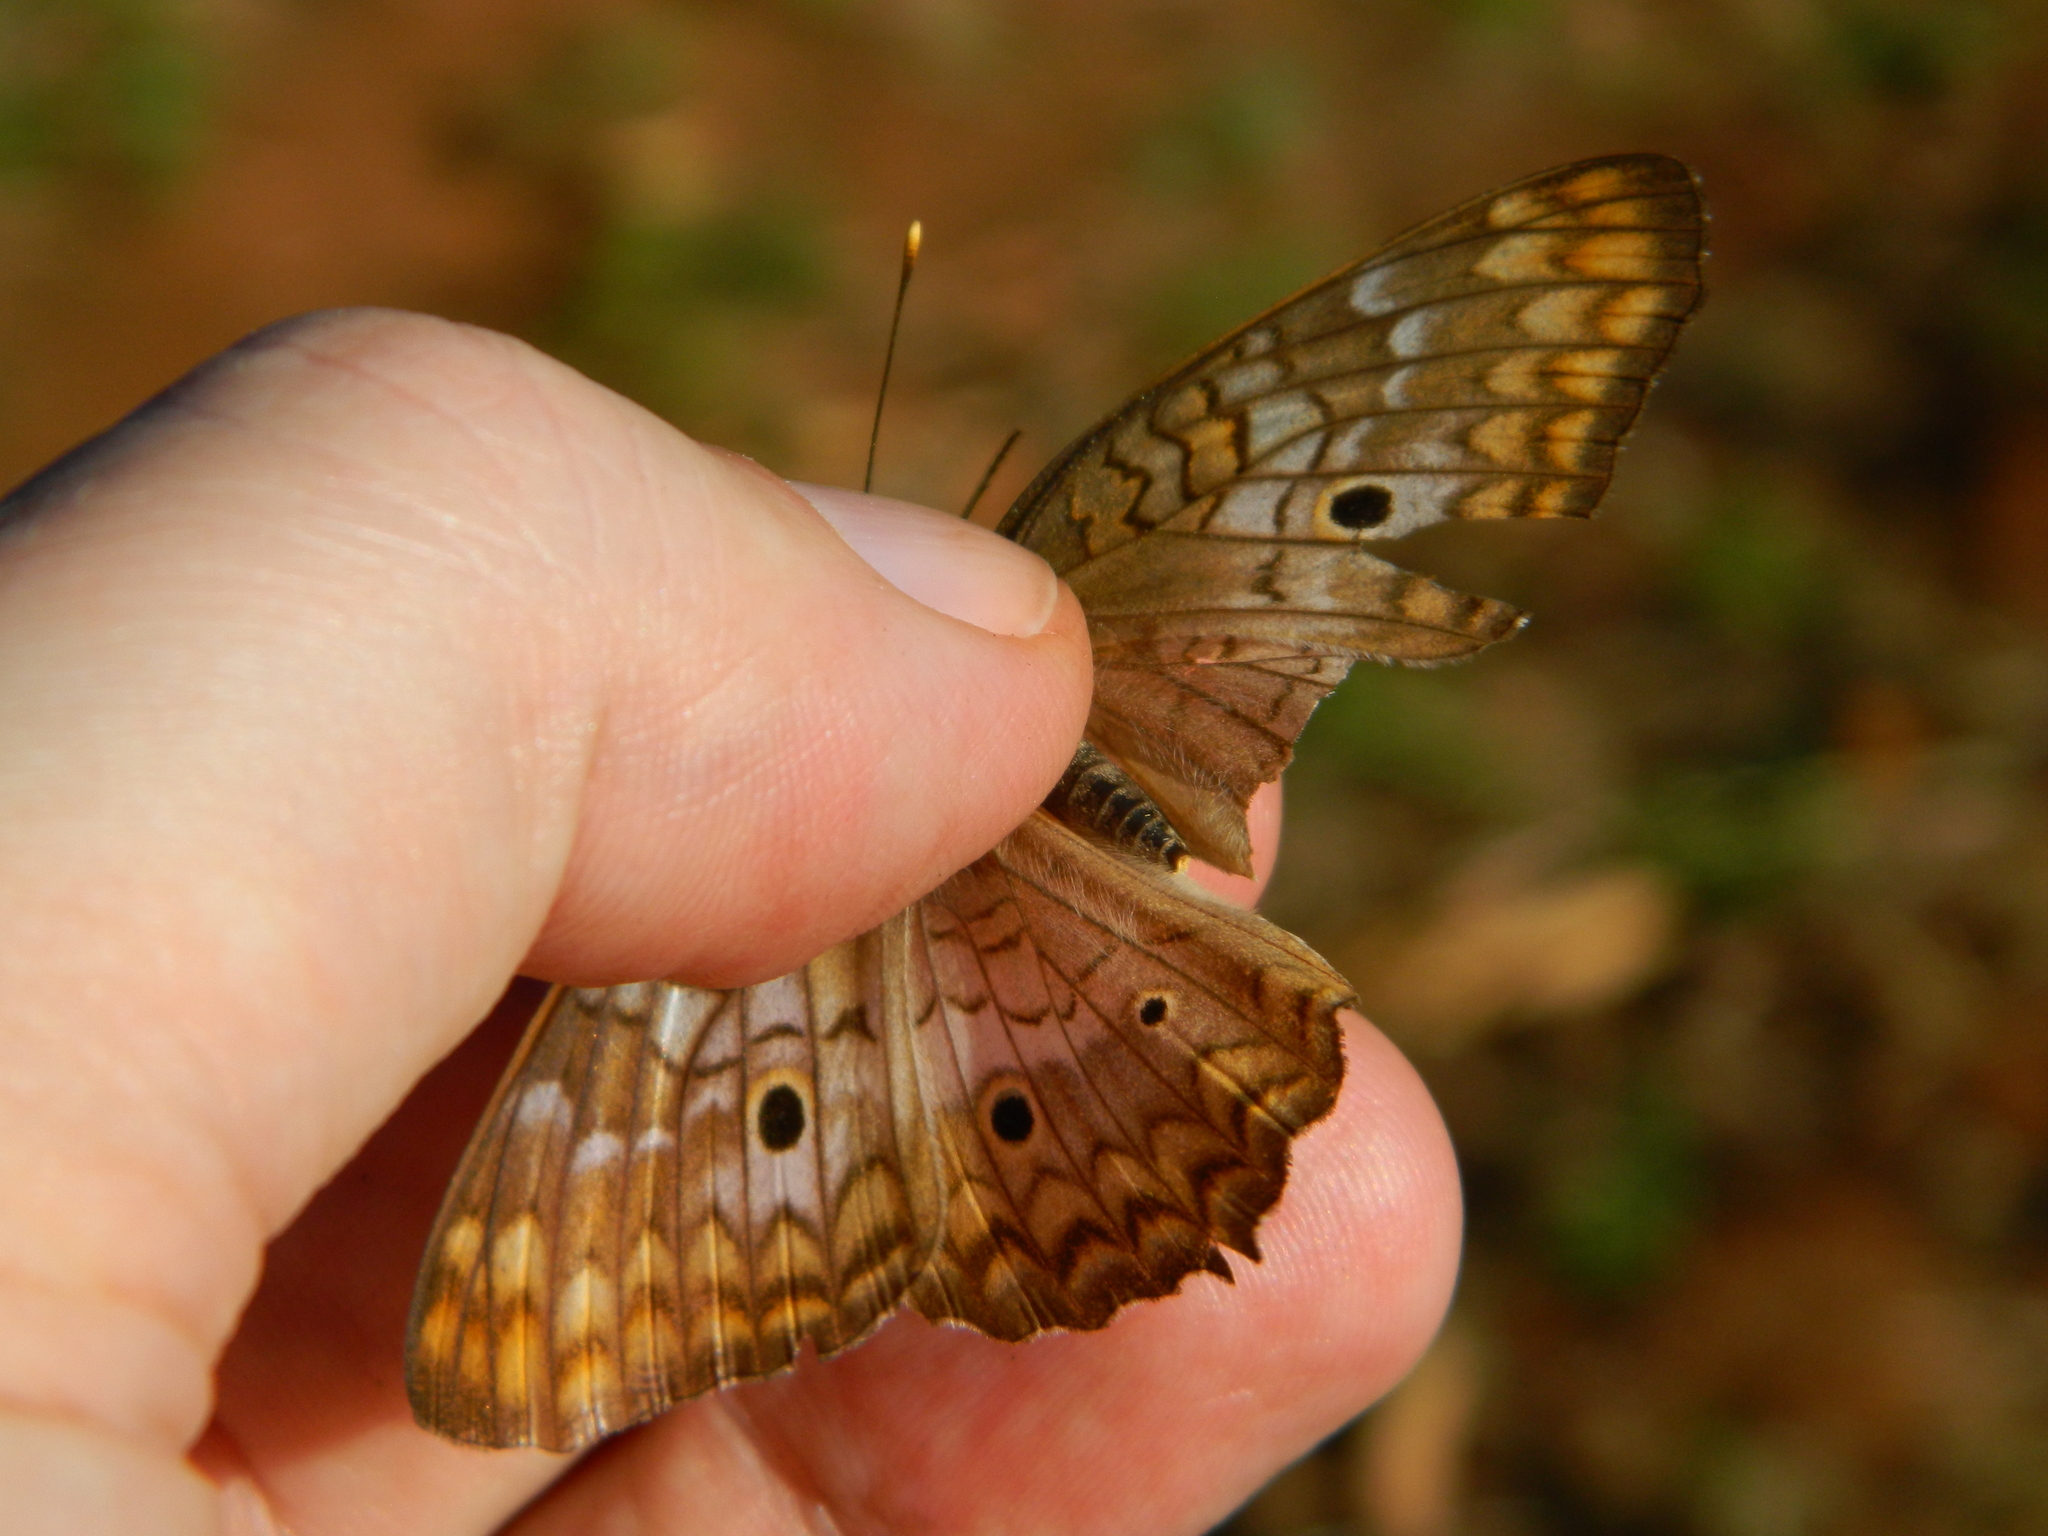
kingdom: Animalia
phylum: Arthropoda
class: Insecta
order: Lepidoptera
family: Nymphalidae
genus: Anartia
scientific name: Anartia jatrophae
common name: White peacock
